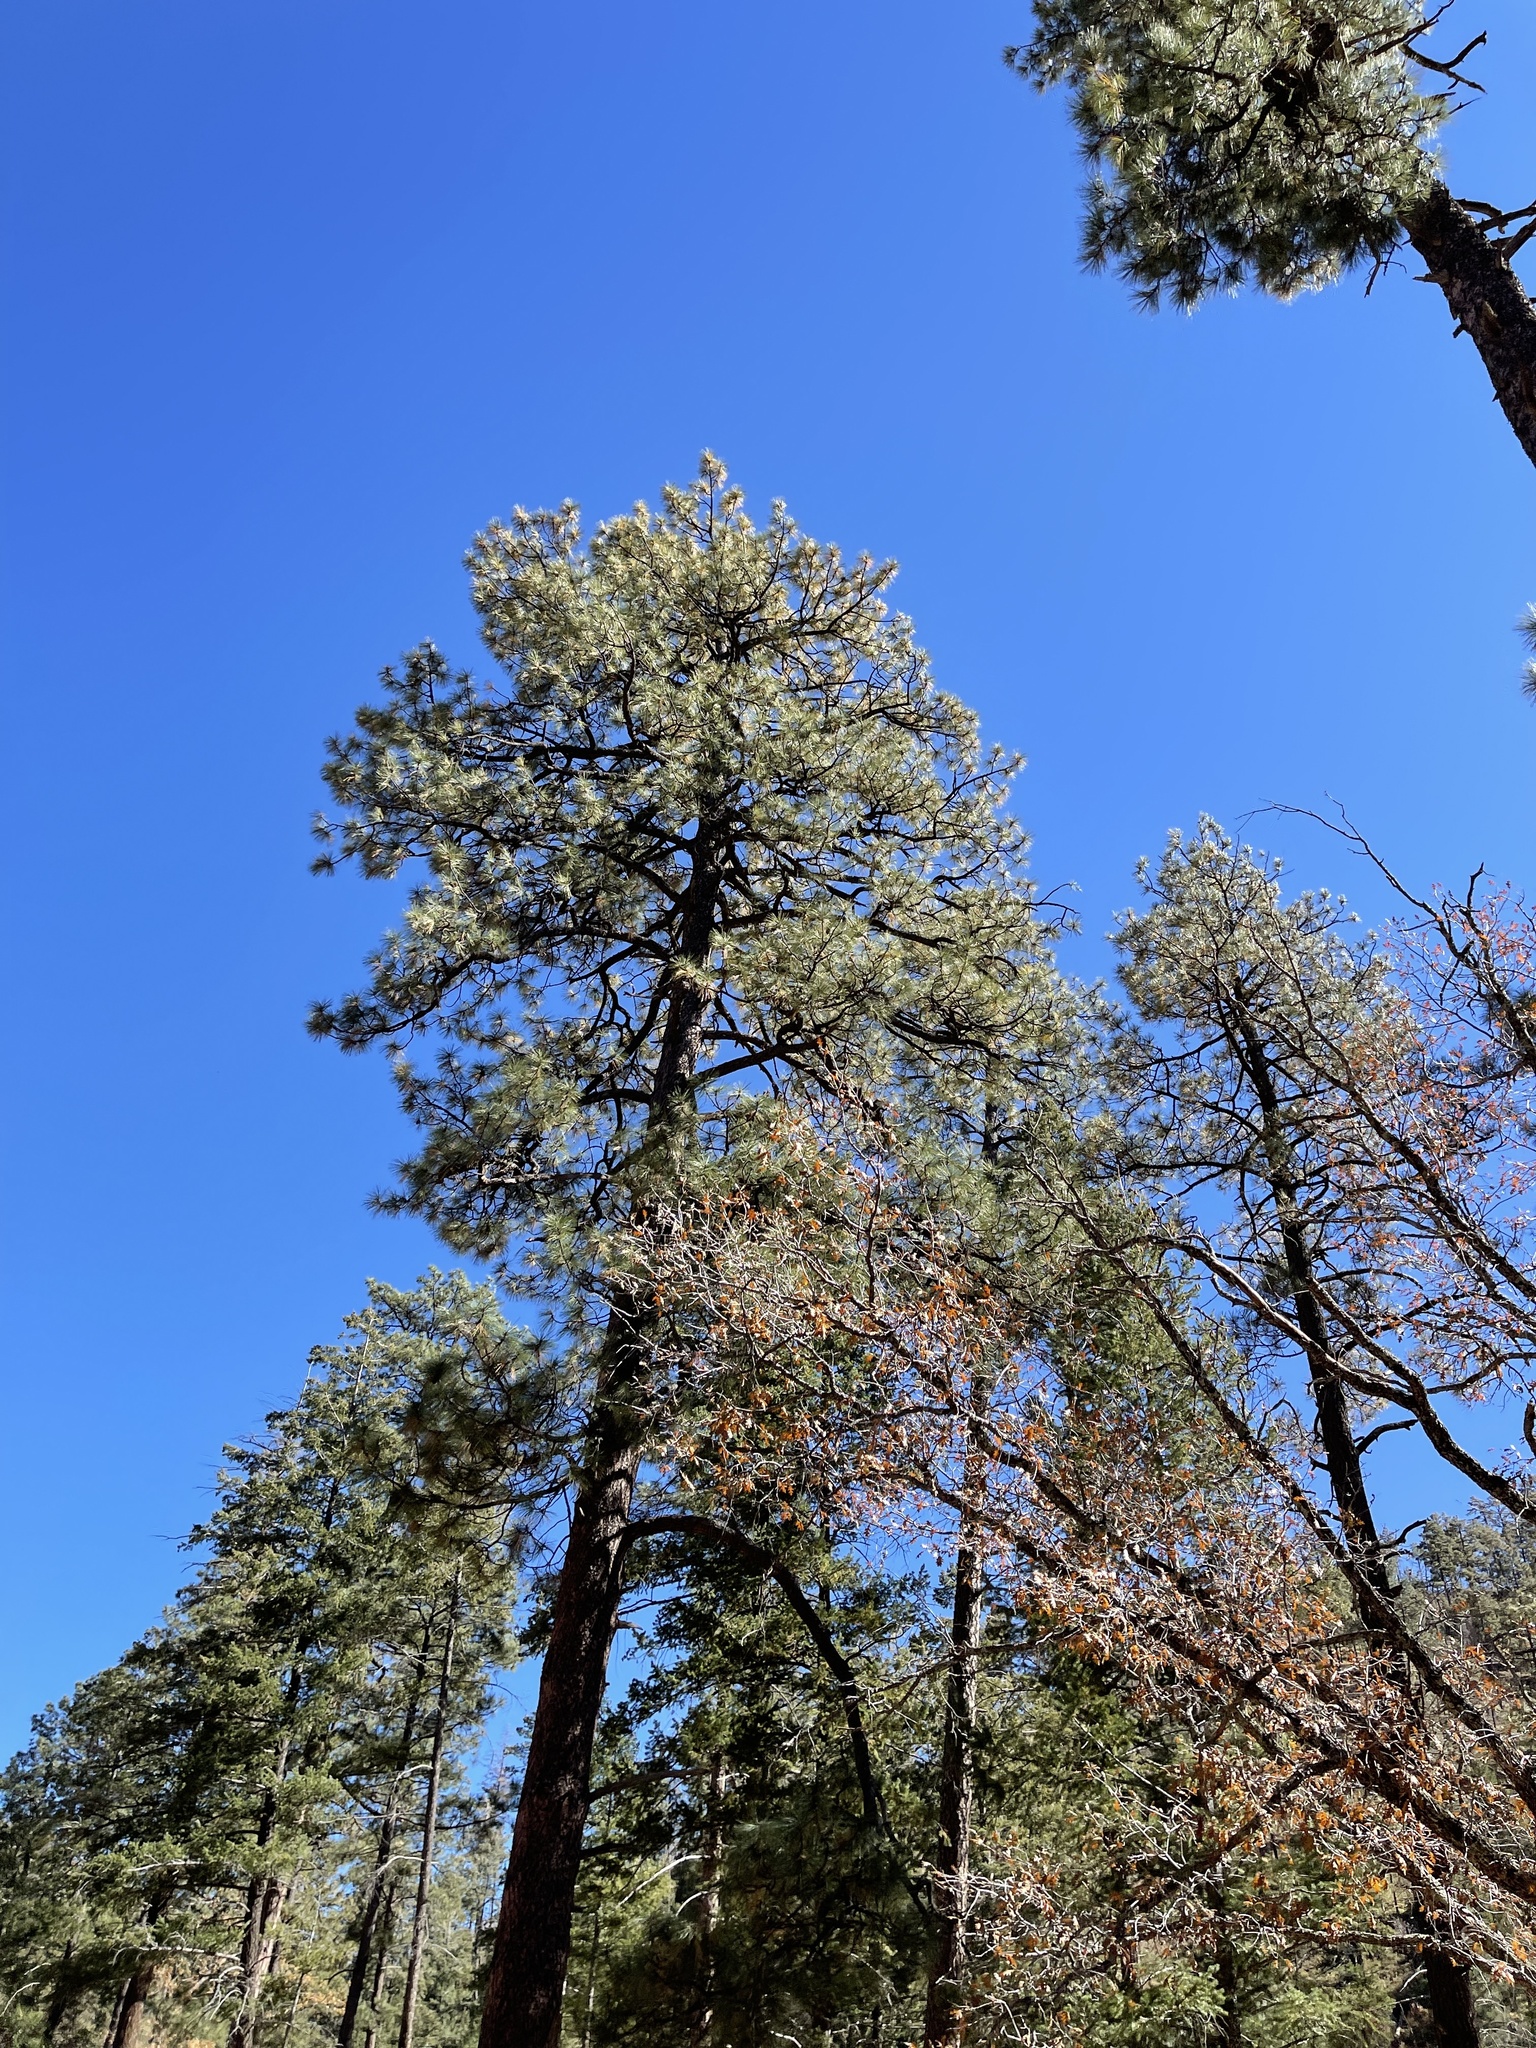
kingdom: Plantae
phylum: Tracheophyta
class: Pinopsida
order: Pinales
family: Pinaceae
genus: Pinus
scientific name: Pinus ponderosa
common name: Western yellow-pine
